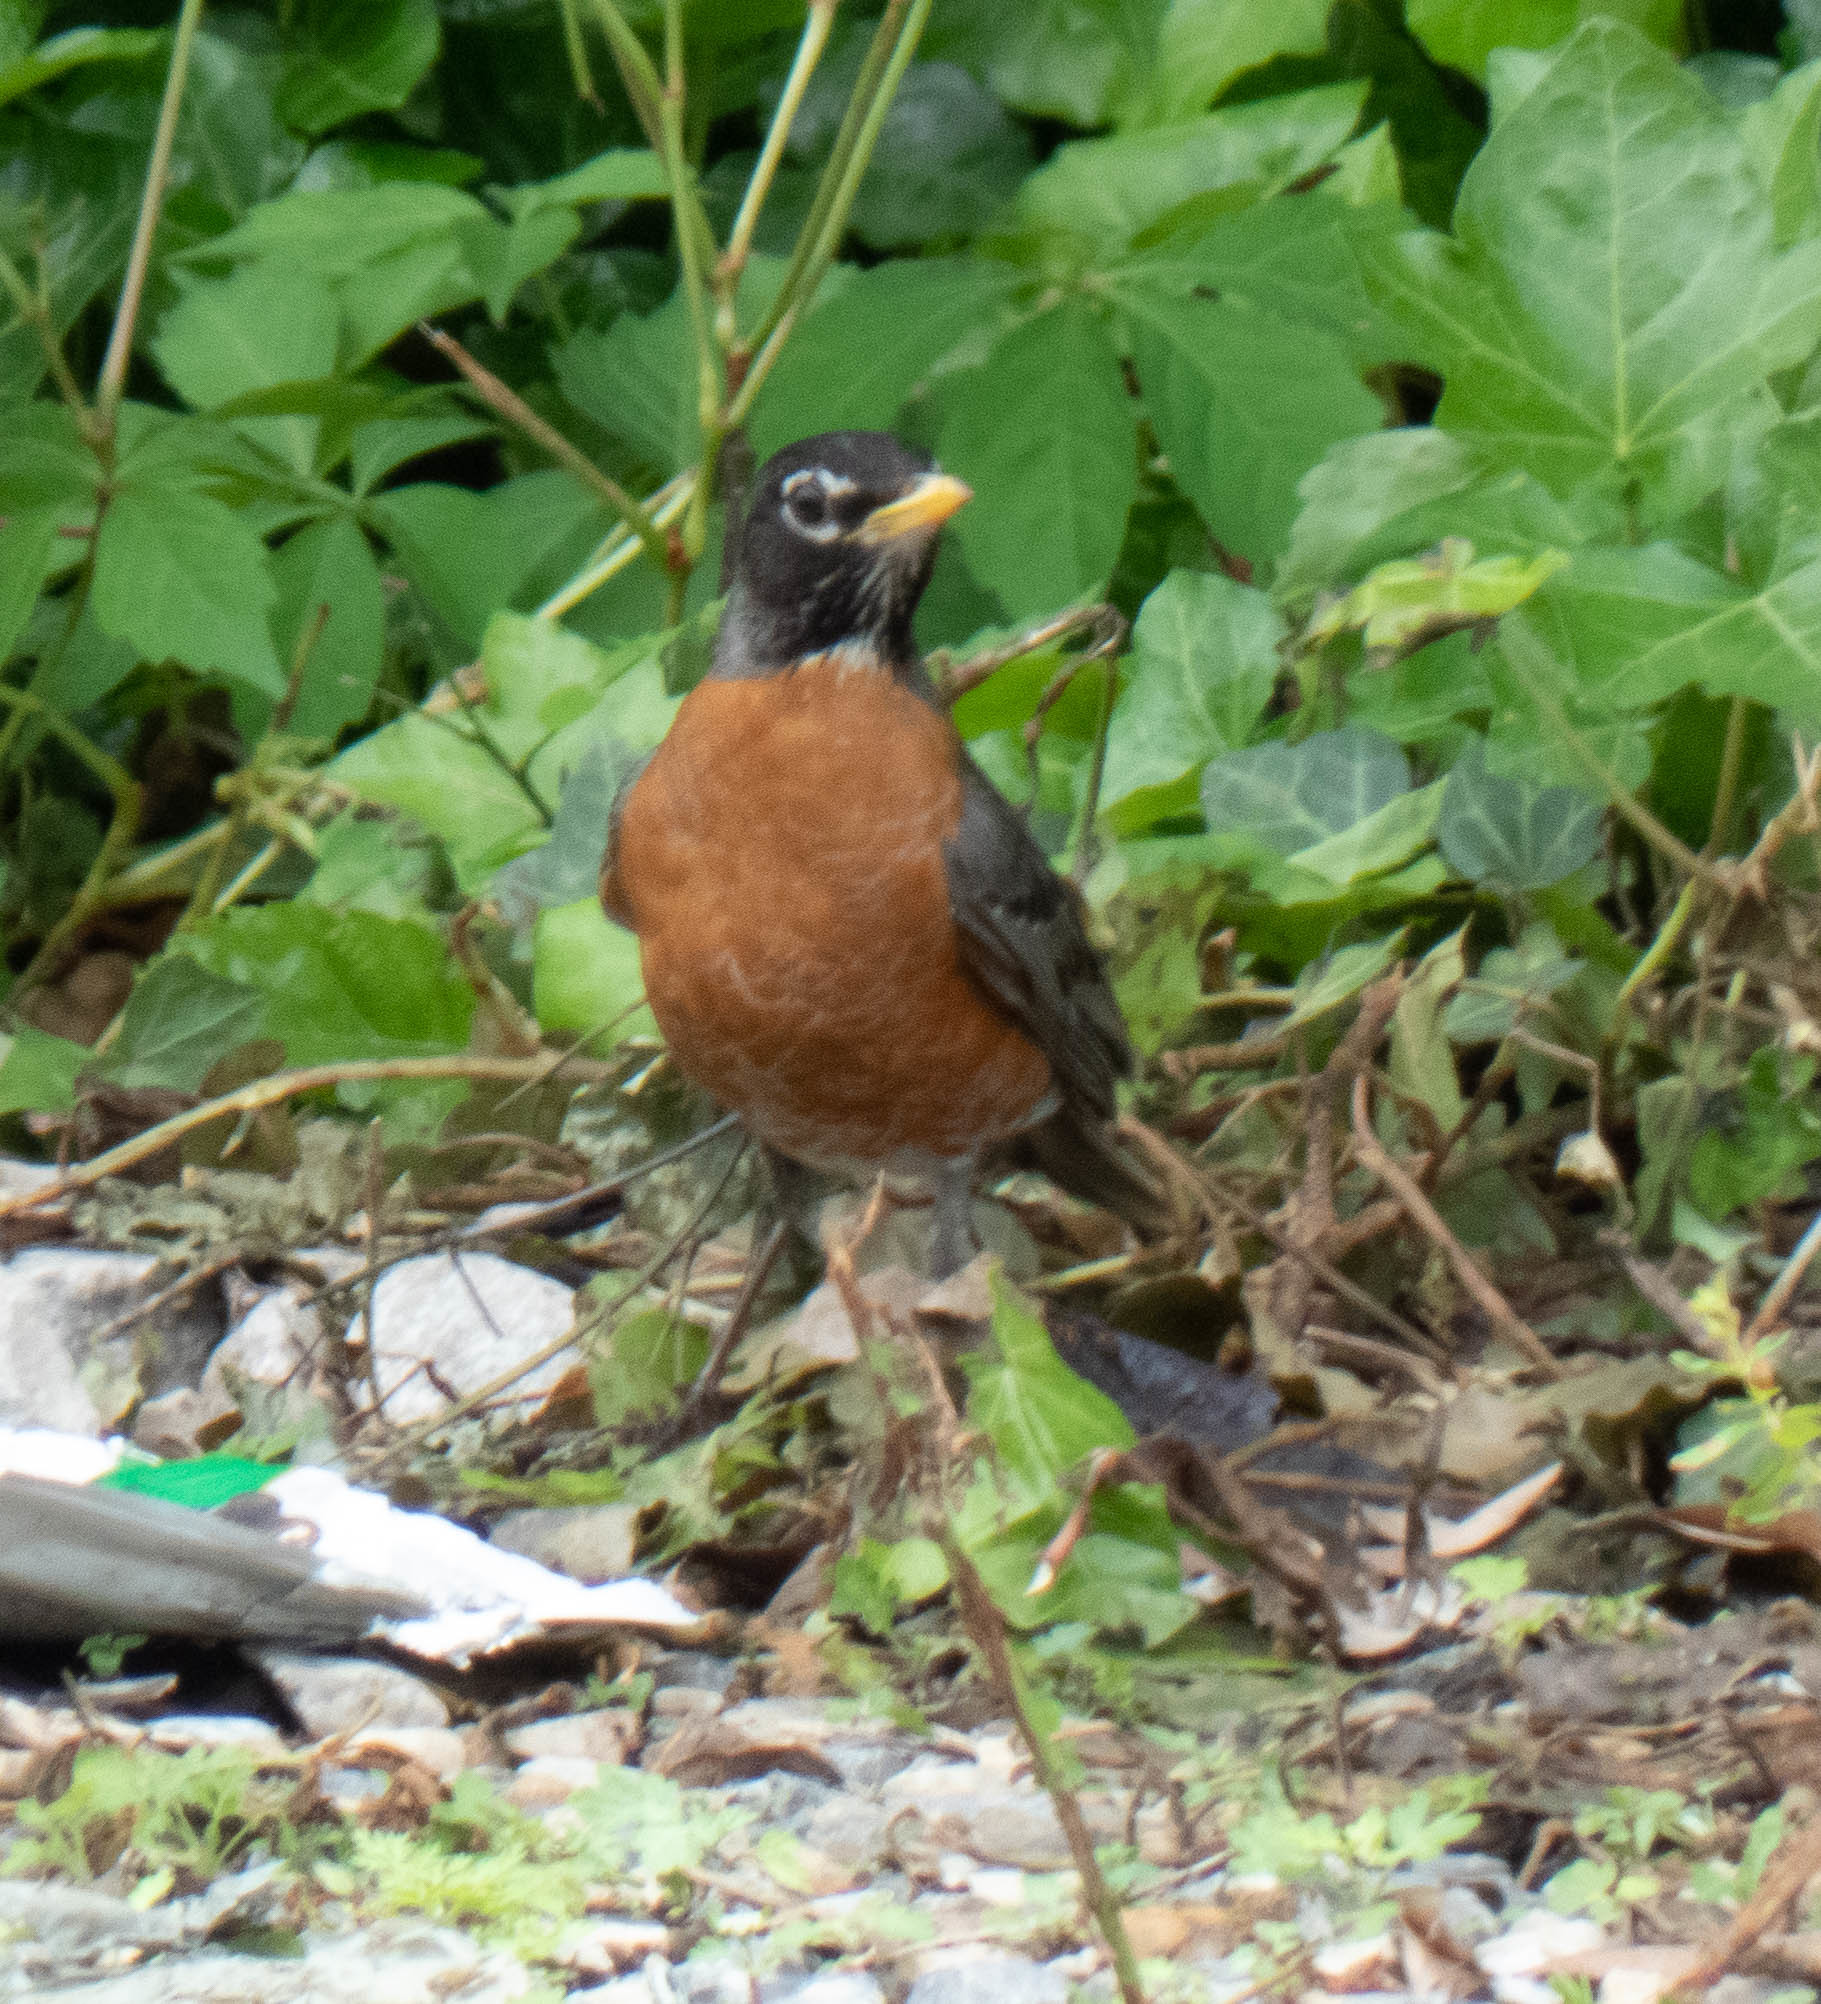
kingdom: Animalia
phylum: Chordata
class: Aves
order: Passeriformes
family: Turdidae
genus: Turdus
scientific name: Turdus migratorius
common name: American robin
